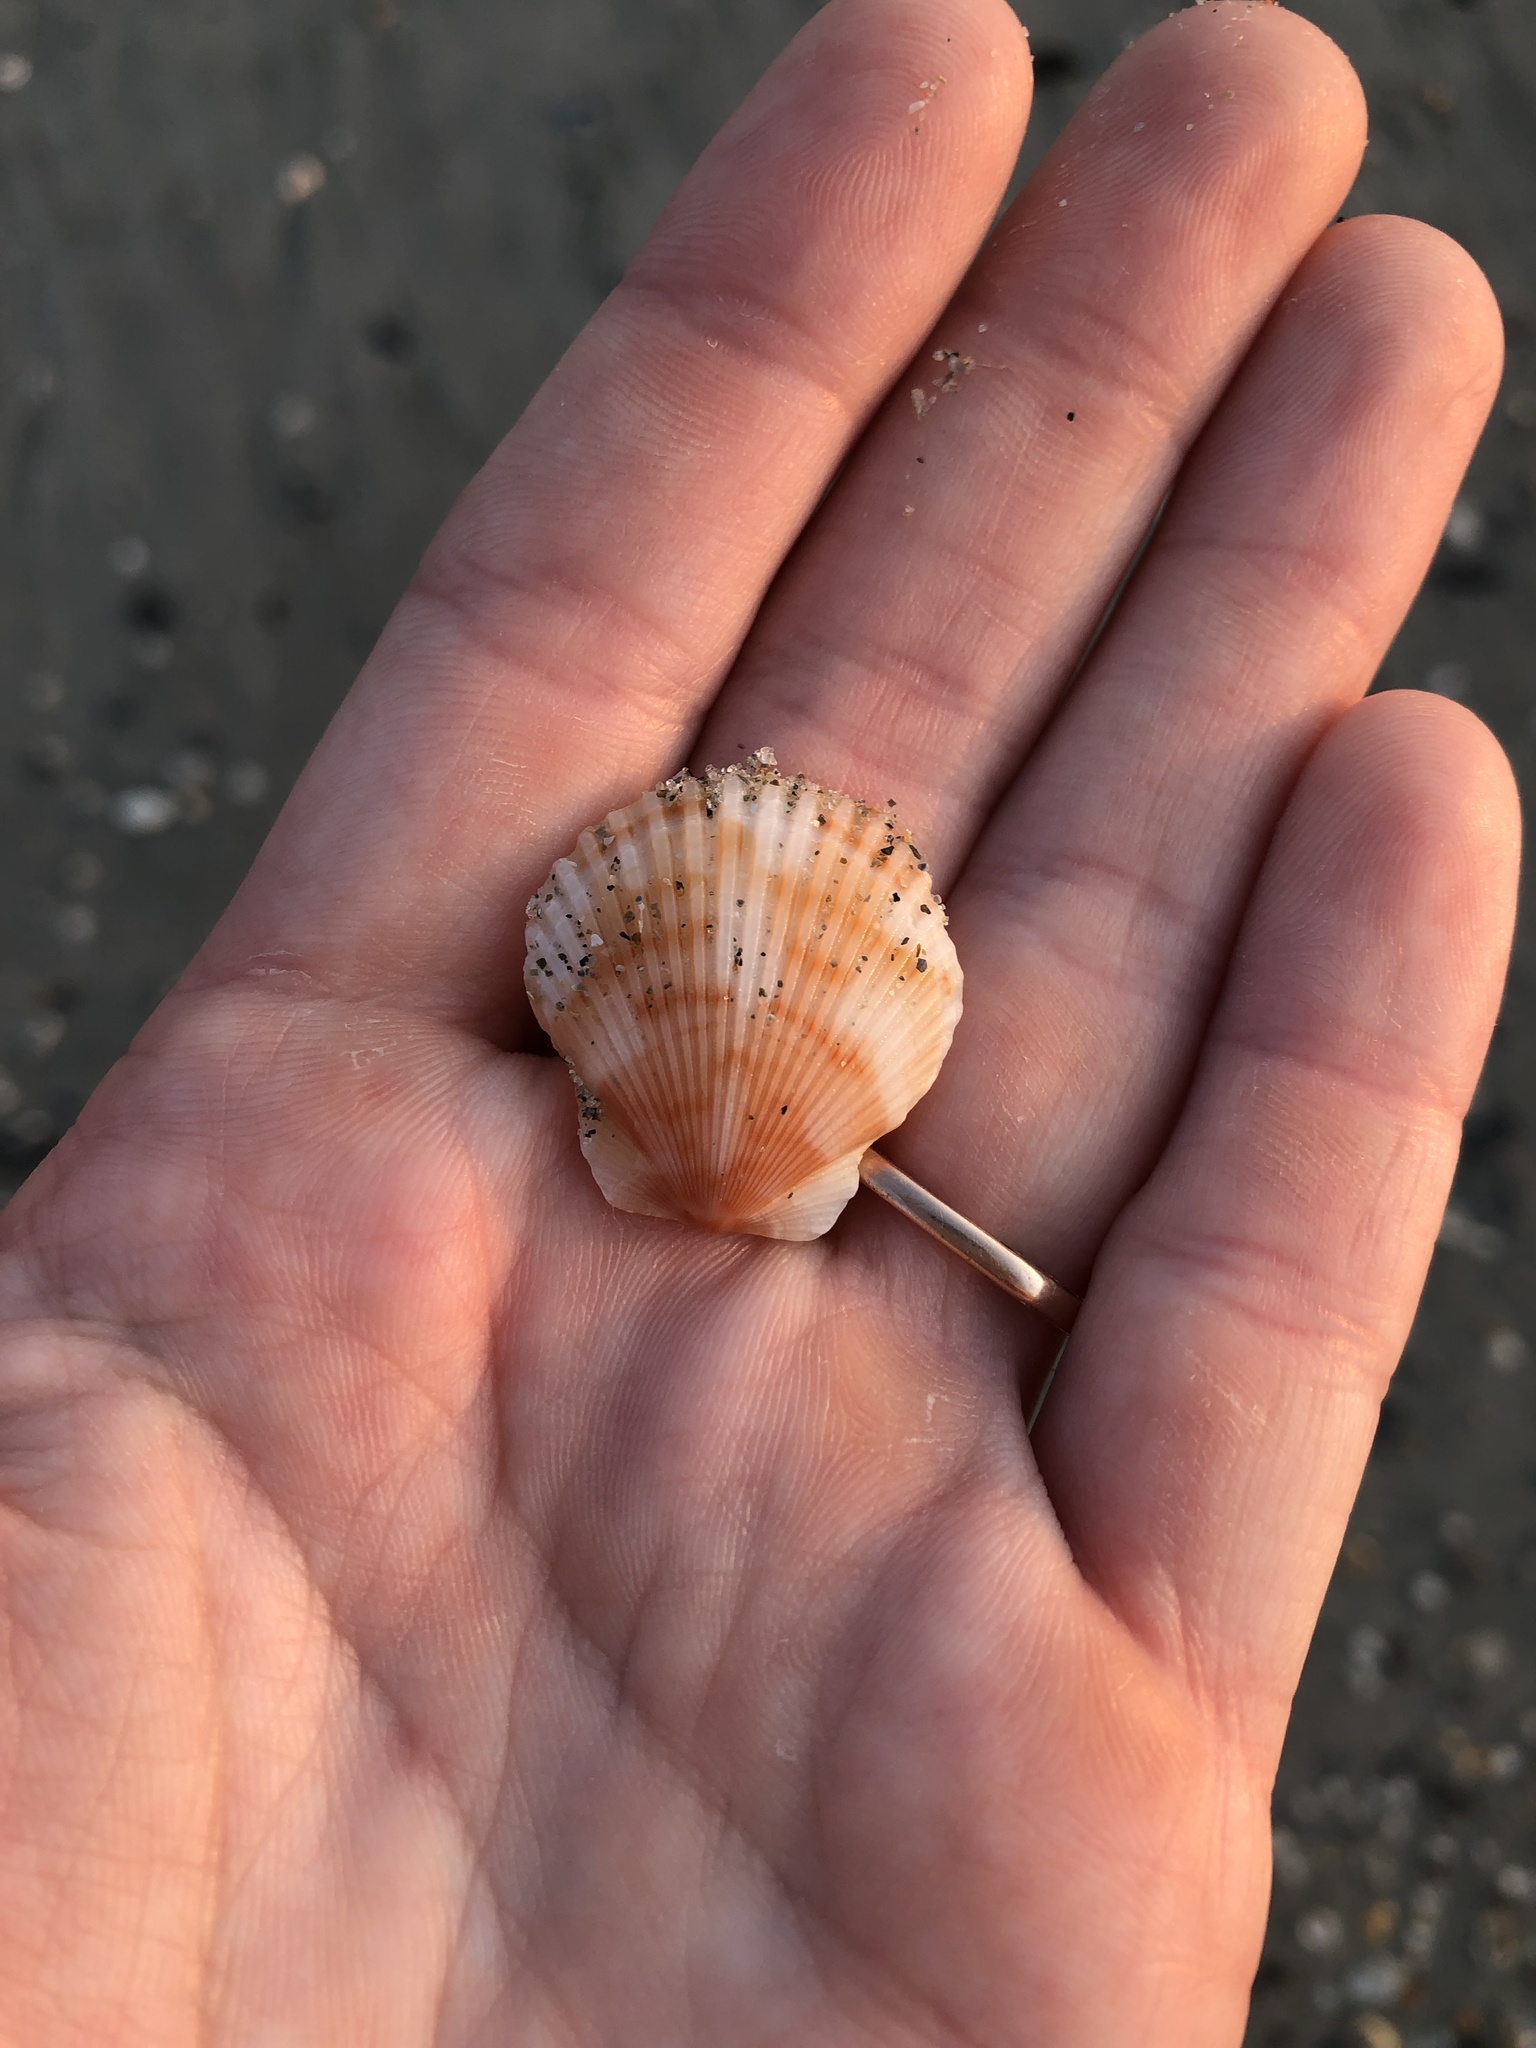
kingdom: Animalia
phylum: Mollusca
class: Bivalvia
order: Pectinida
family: Pectinidae
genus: Argopecten
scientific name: Argopecten gibbus
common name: Atlantic calico scallop
